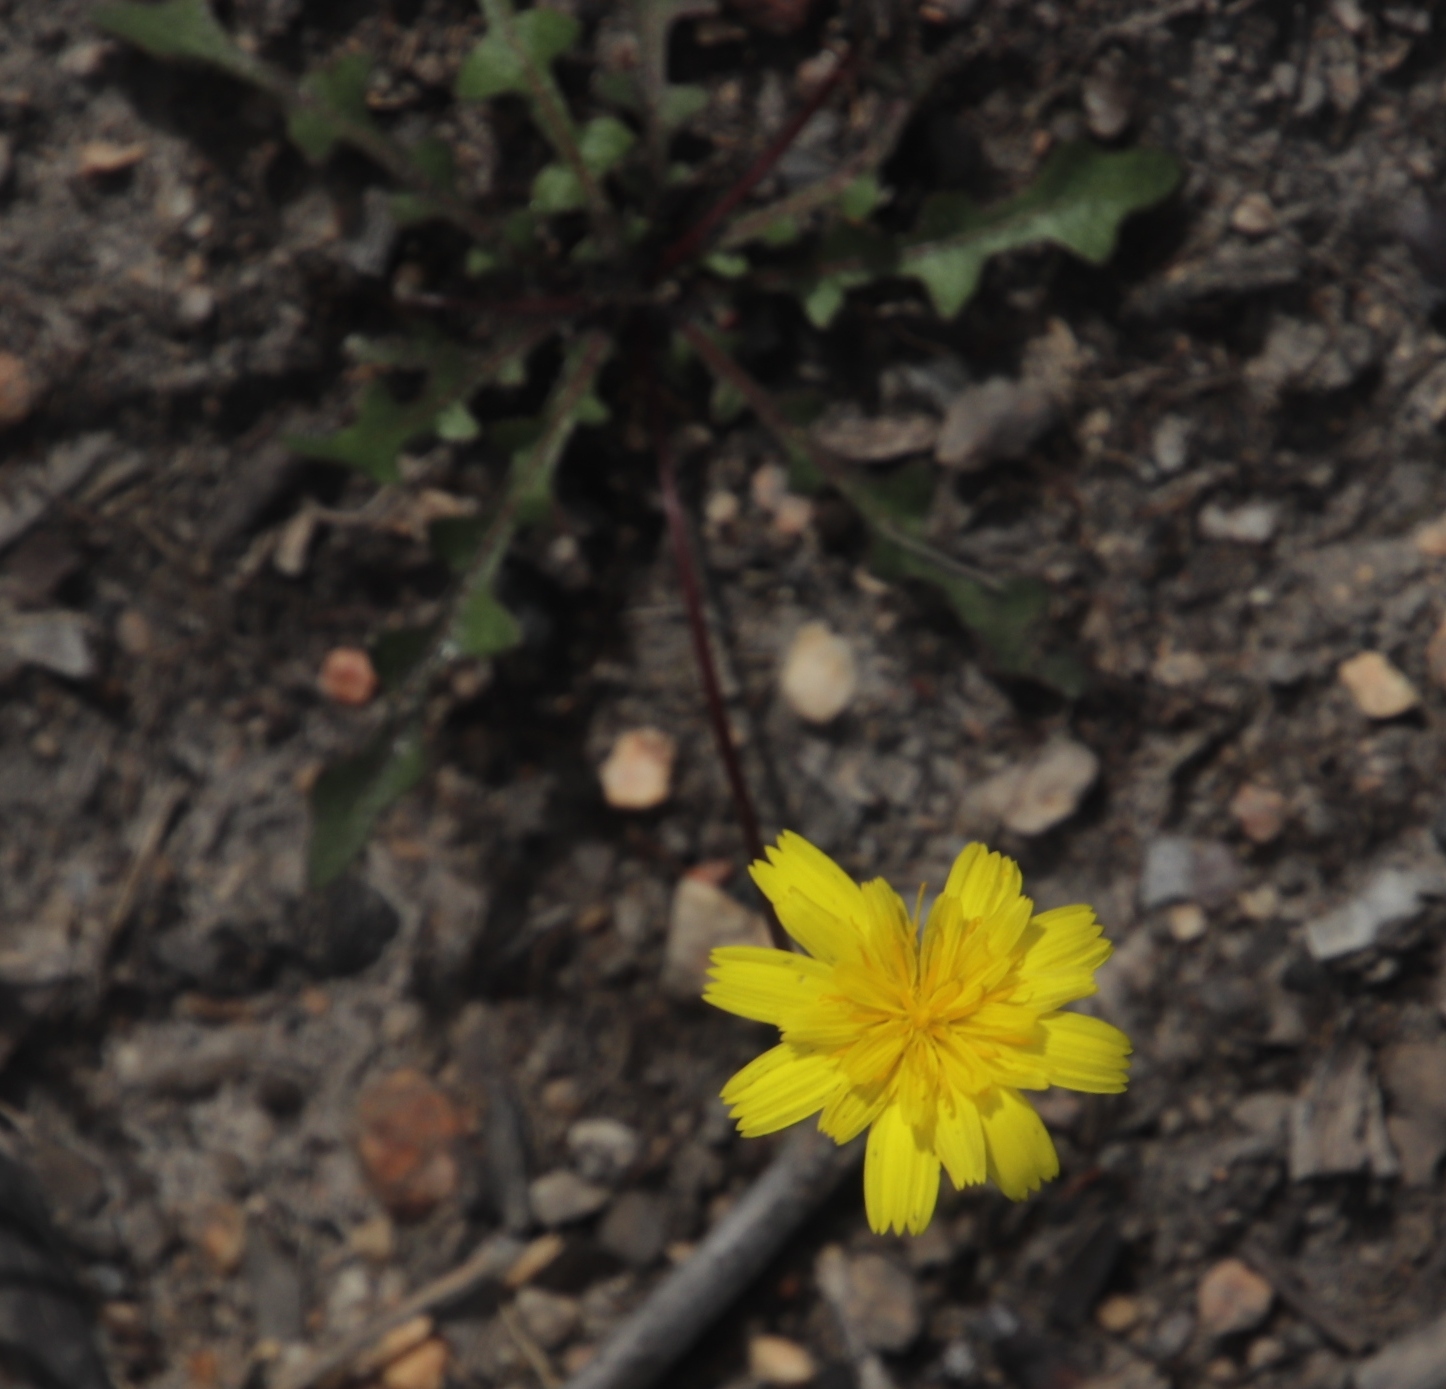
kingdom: Plantae
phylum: Tracheophyta
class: Magnoliopsida
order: Asterales
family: Asteraceae
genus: Hypochaeris
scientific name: Hypochaeris radicata
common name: Flatweed
